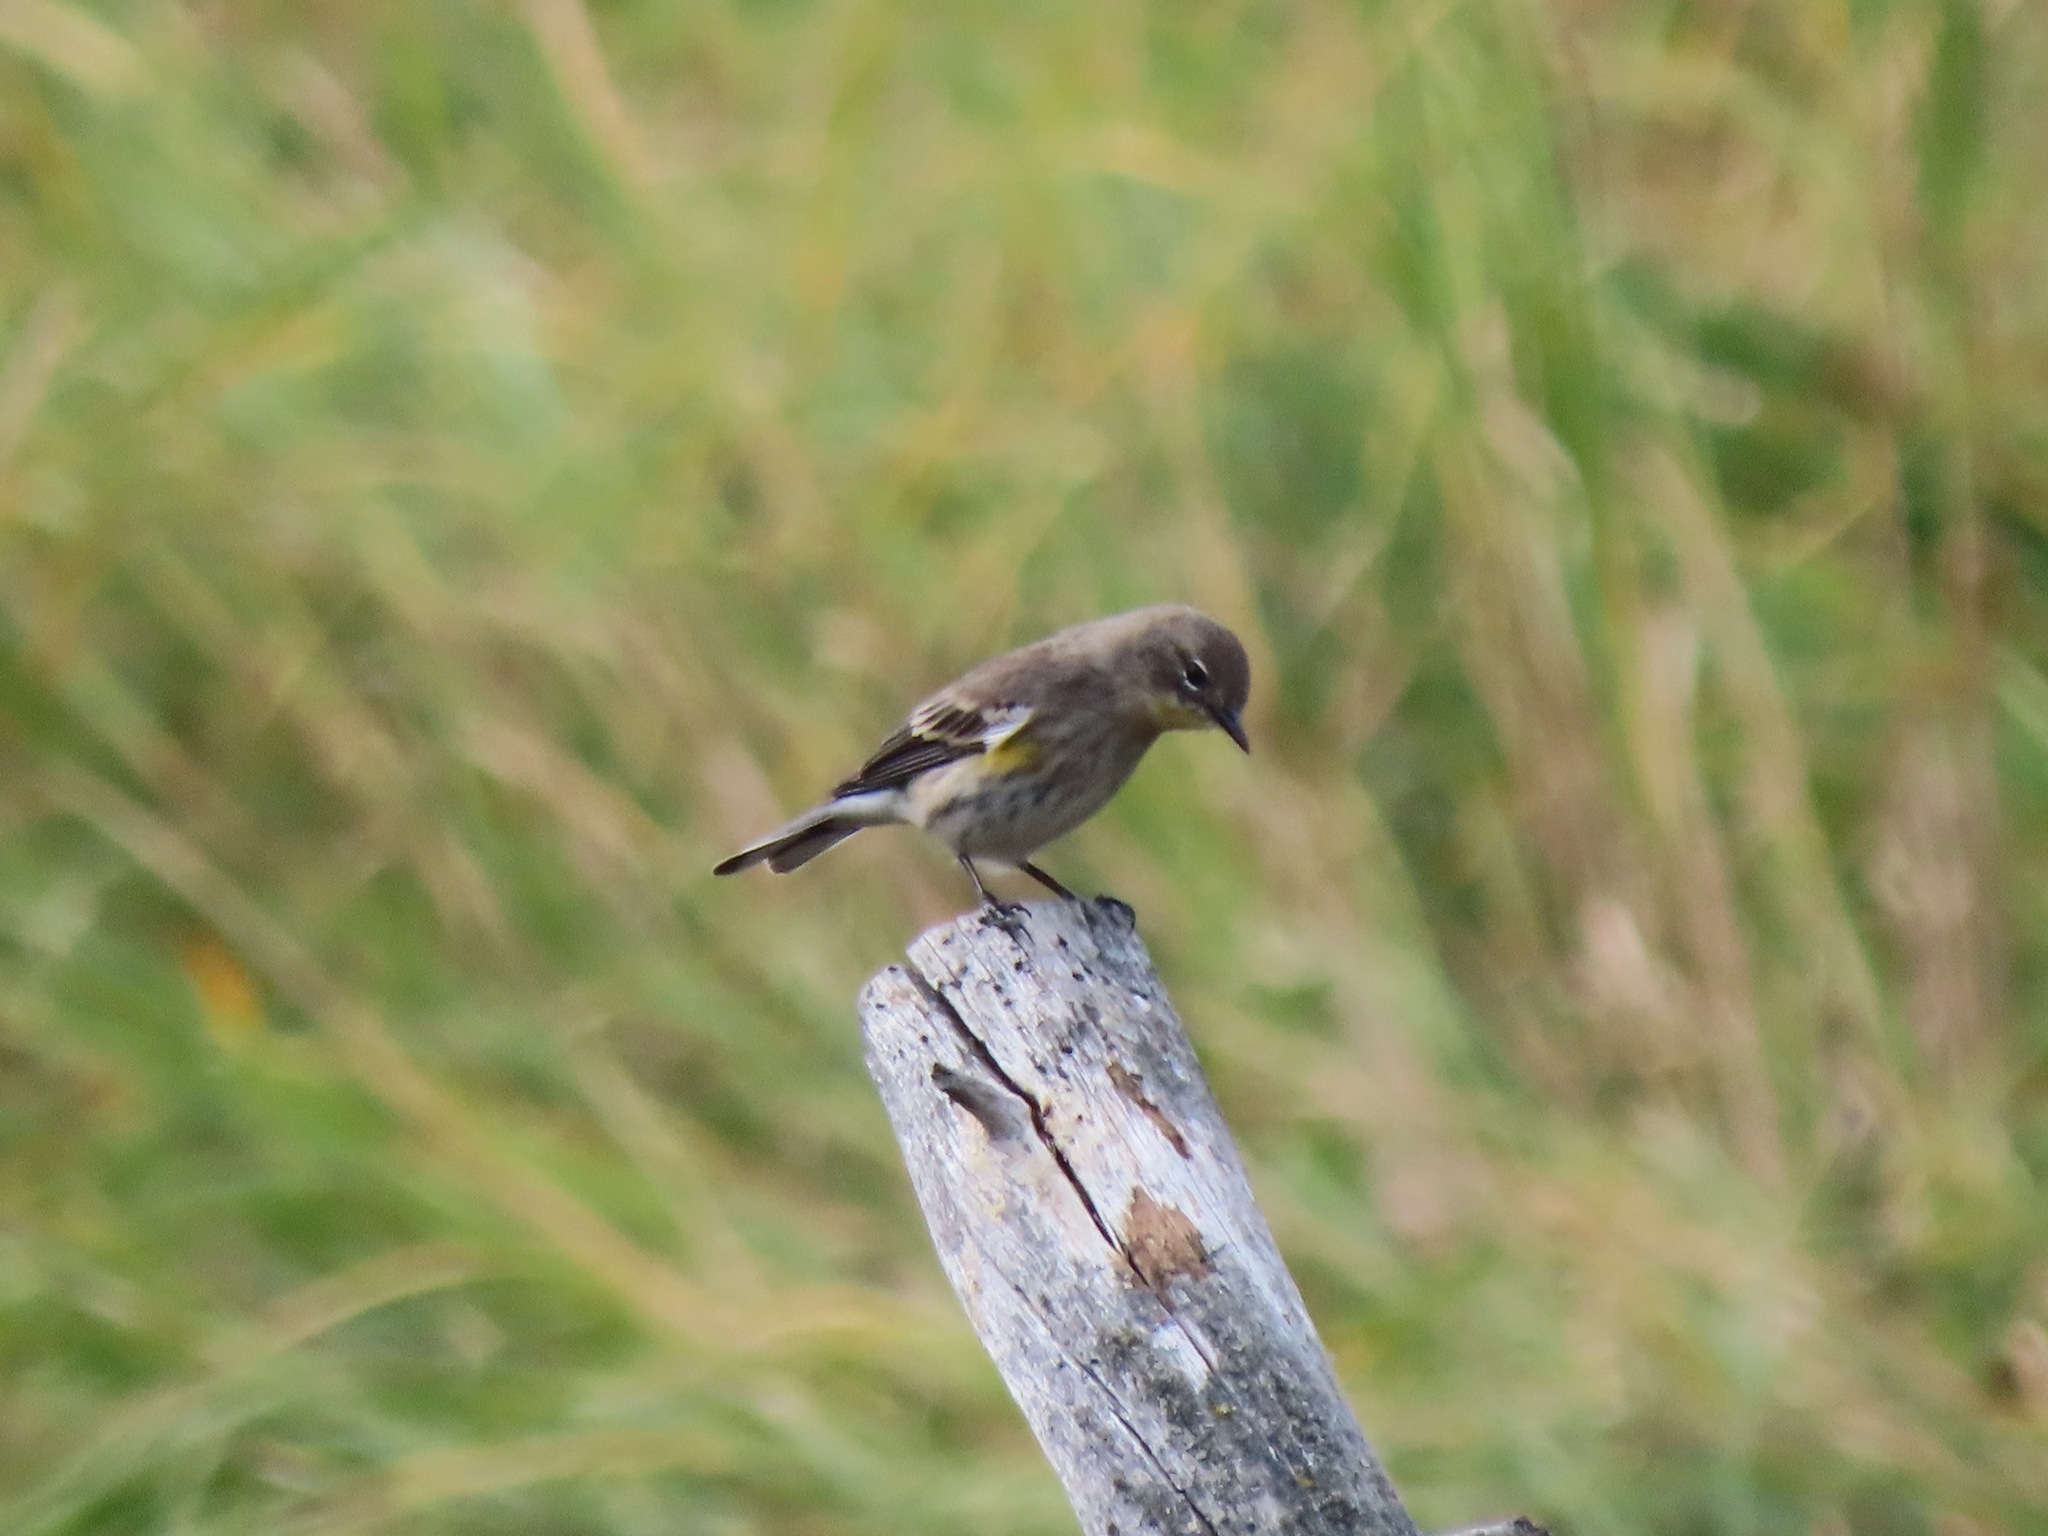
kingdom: Animalia
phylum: Chordata
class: Aves
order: Passeriformes
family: Parulidae
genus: Setophaga
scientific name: Setophaga coronata
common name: Myrtle warbler
